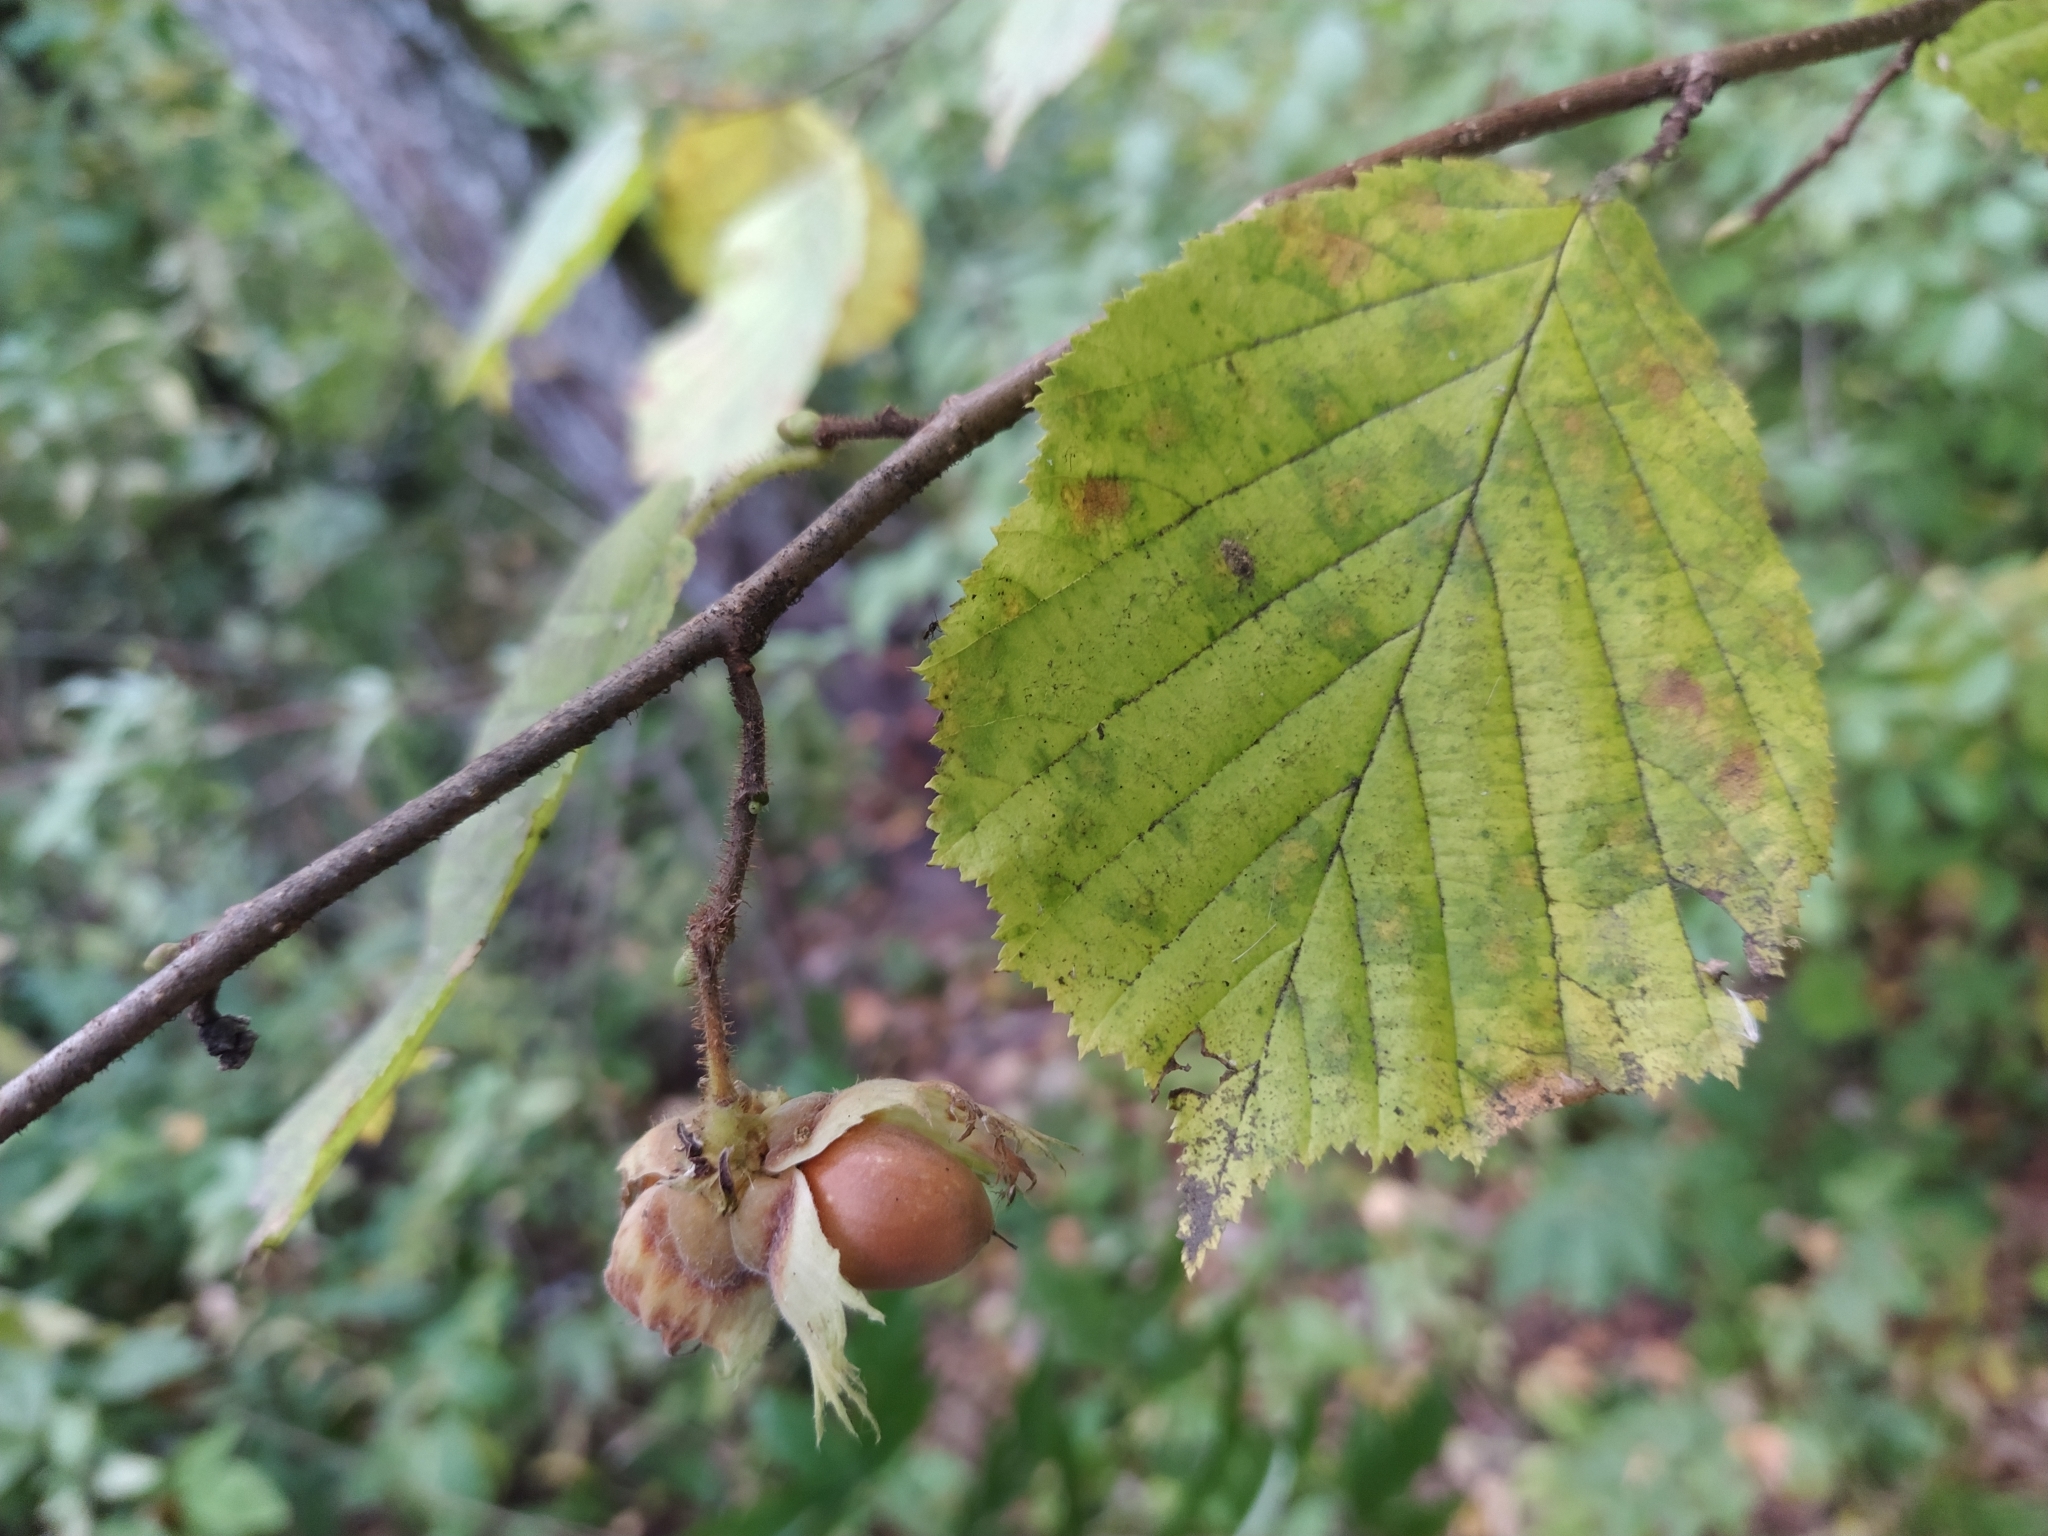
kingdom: Plantae
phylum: Tracheophyta
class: Magnoliopsida
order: Fagales
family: Betulaceae
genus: Corylus
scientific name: Corylus avellana
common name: European hazel
